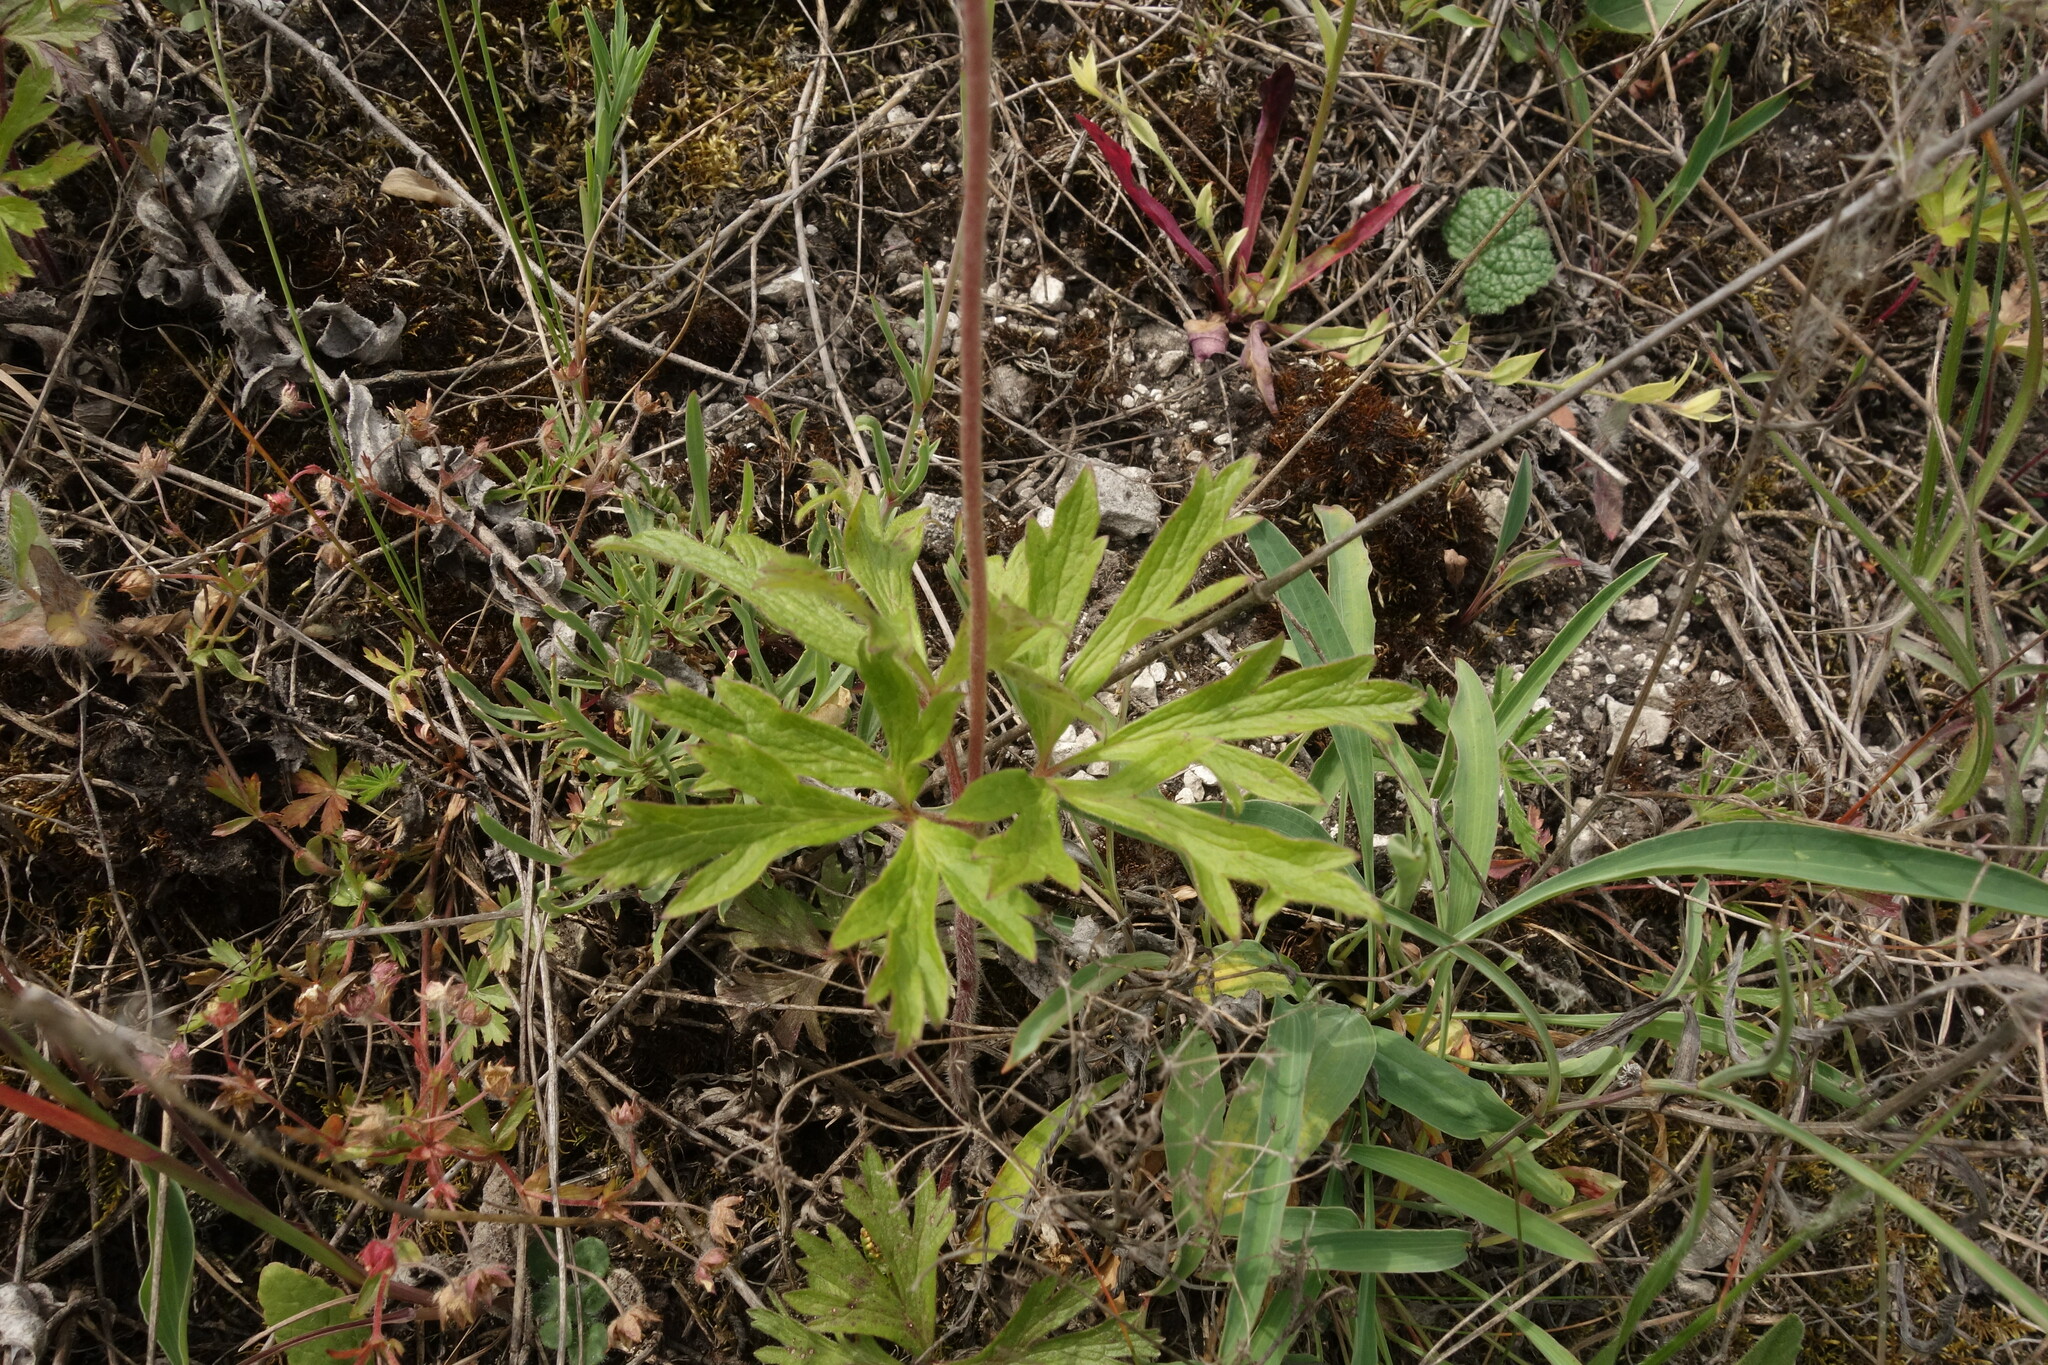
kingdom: Plantae
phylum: Tracheophyta
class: Magnoliopsida
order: Ranunculales
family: Ranunculaceae
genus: Anemone
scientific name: Anemone sylvestris
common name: Snowdrop anemone
